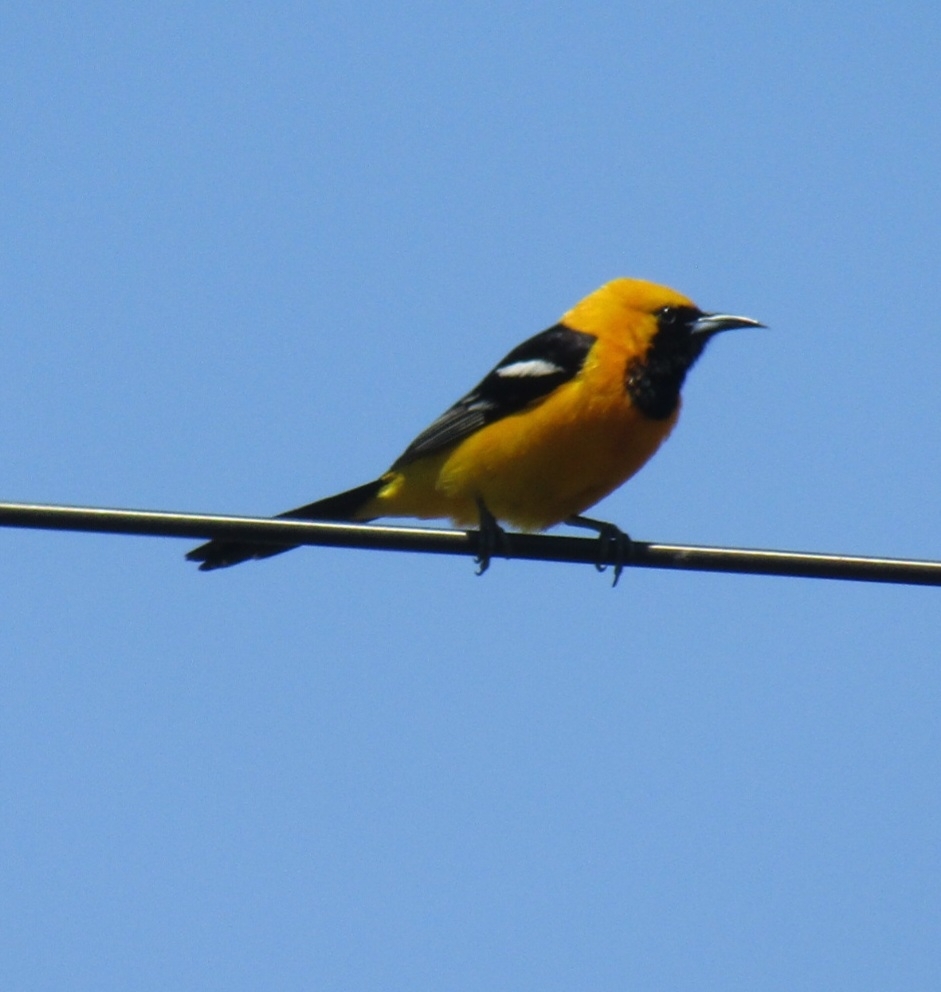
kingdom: Animalia
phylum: Chordata
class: Aves
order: Passeriformes
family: Icteridae
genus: Icterus
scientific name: Icterus cucullatus
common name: Hooded oriole
